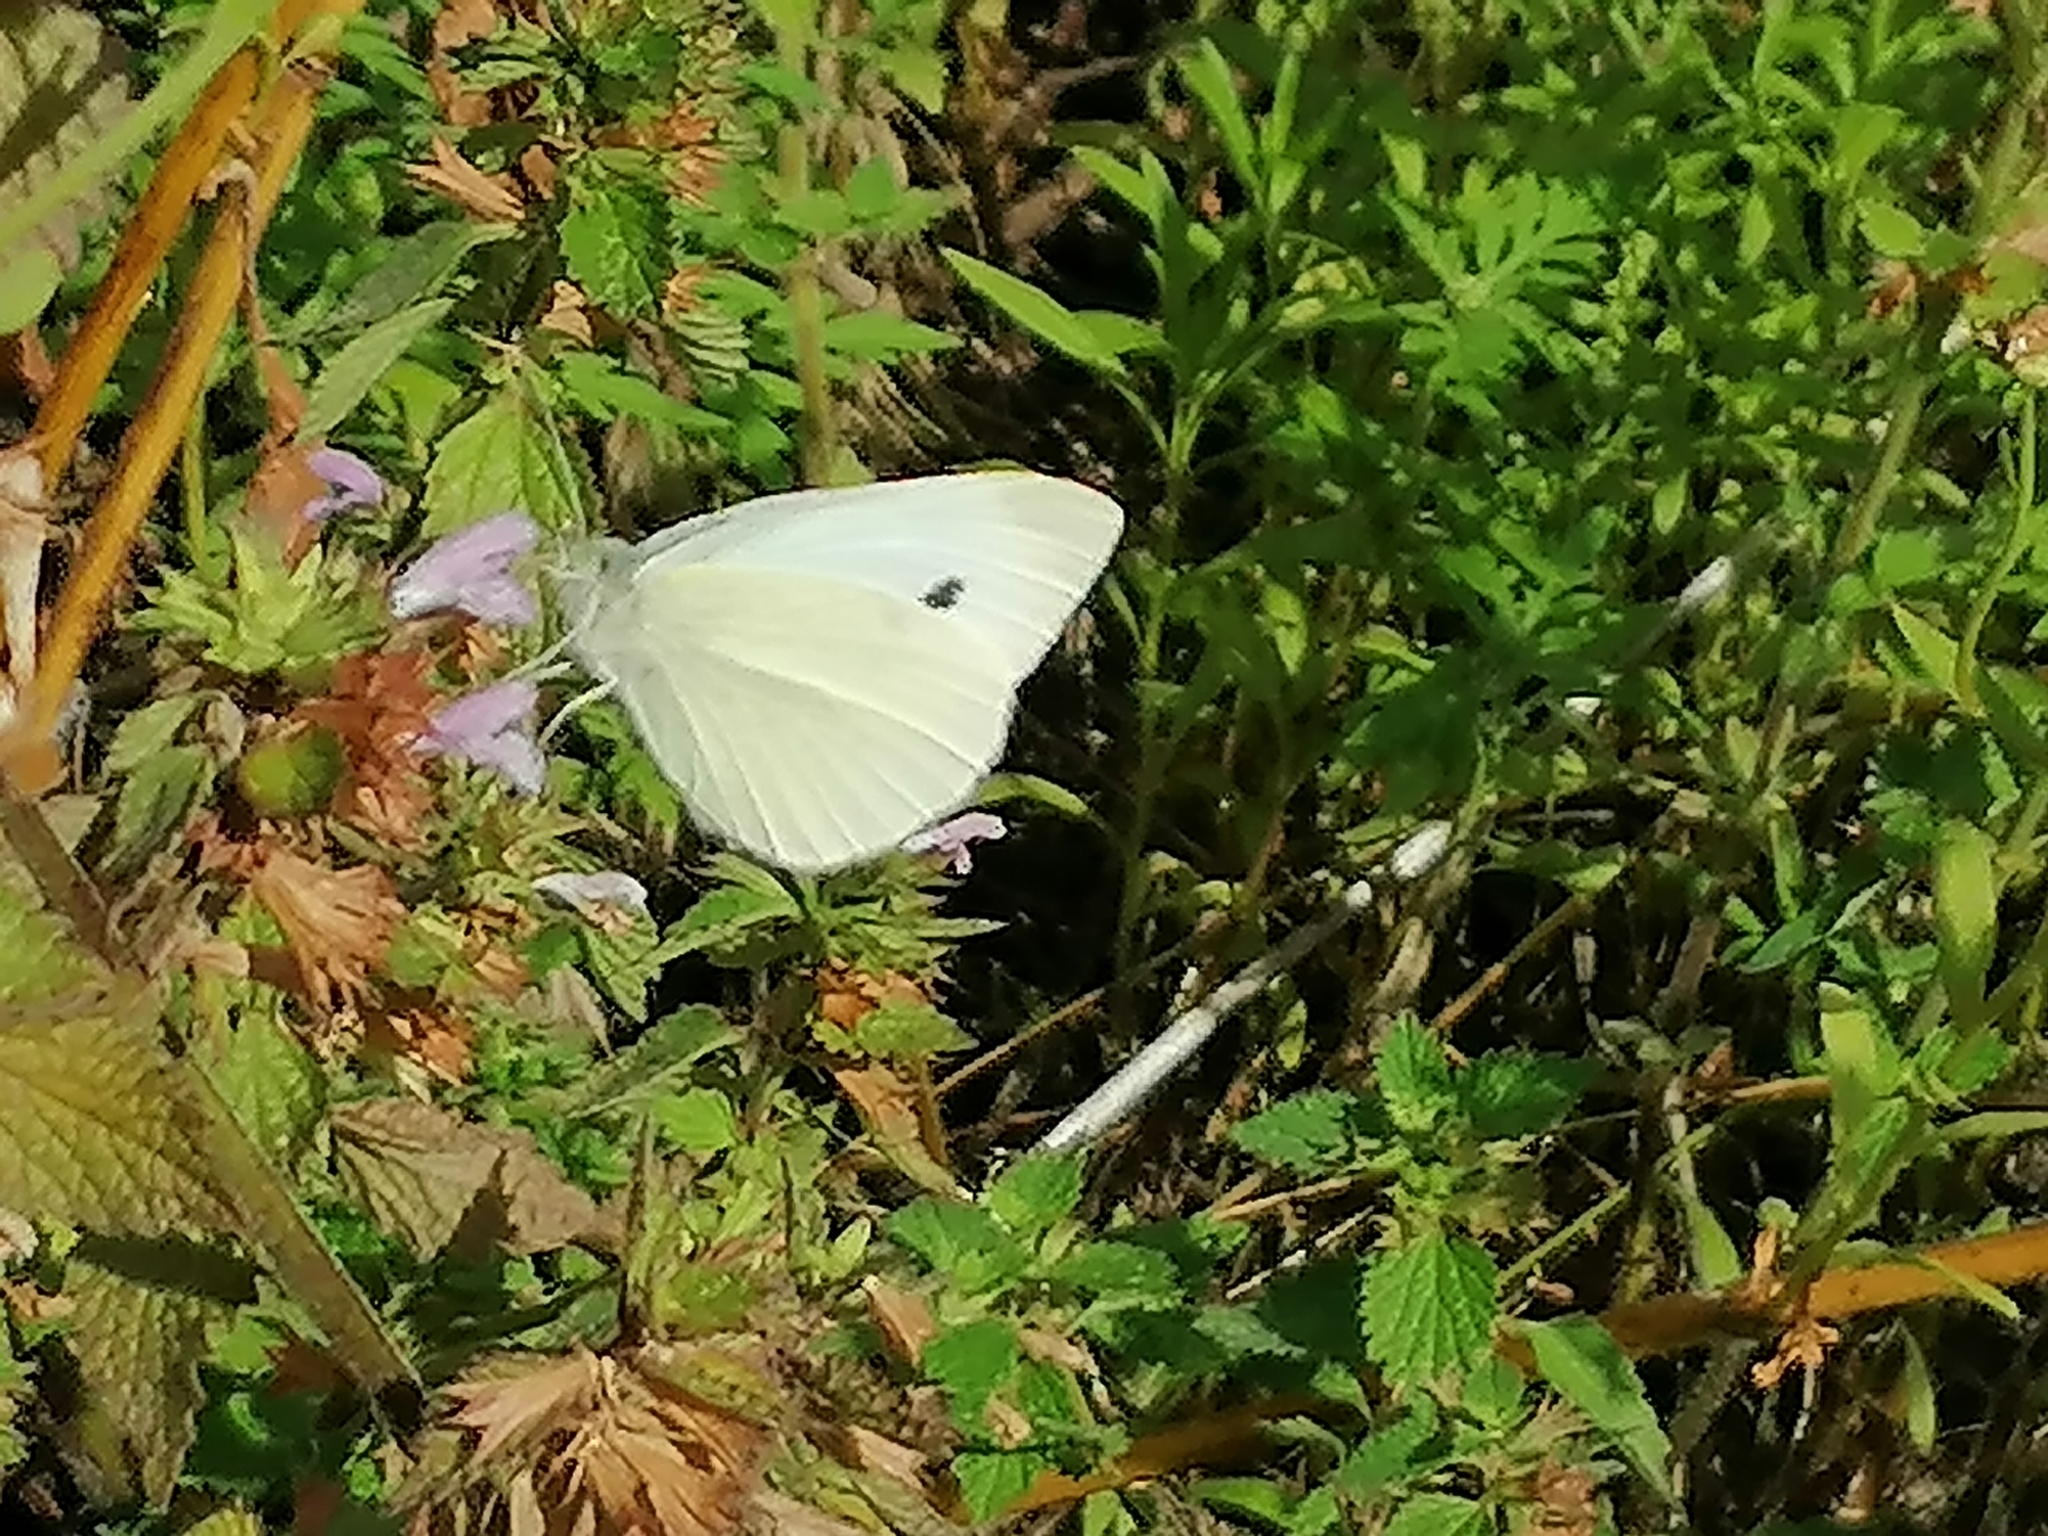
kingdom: Animalia
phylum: Arthropoda
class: Insecta
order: Lepidoptera
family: Pieridae
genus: Pieris
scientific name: Pieris rapae
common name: Small white
